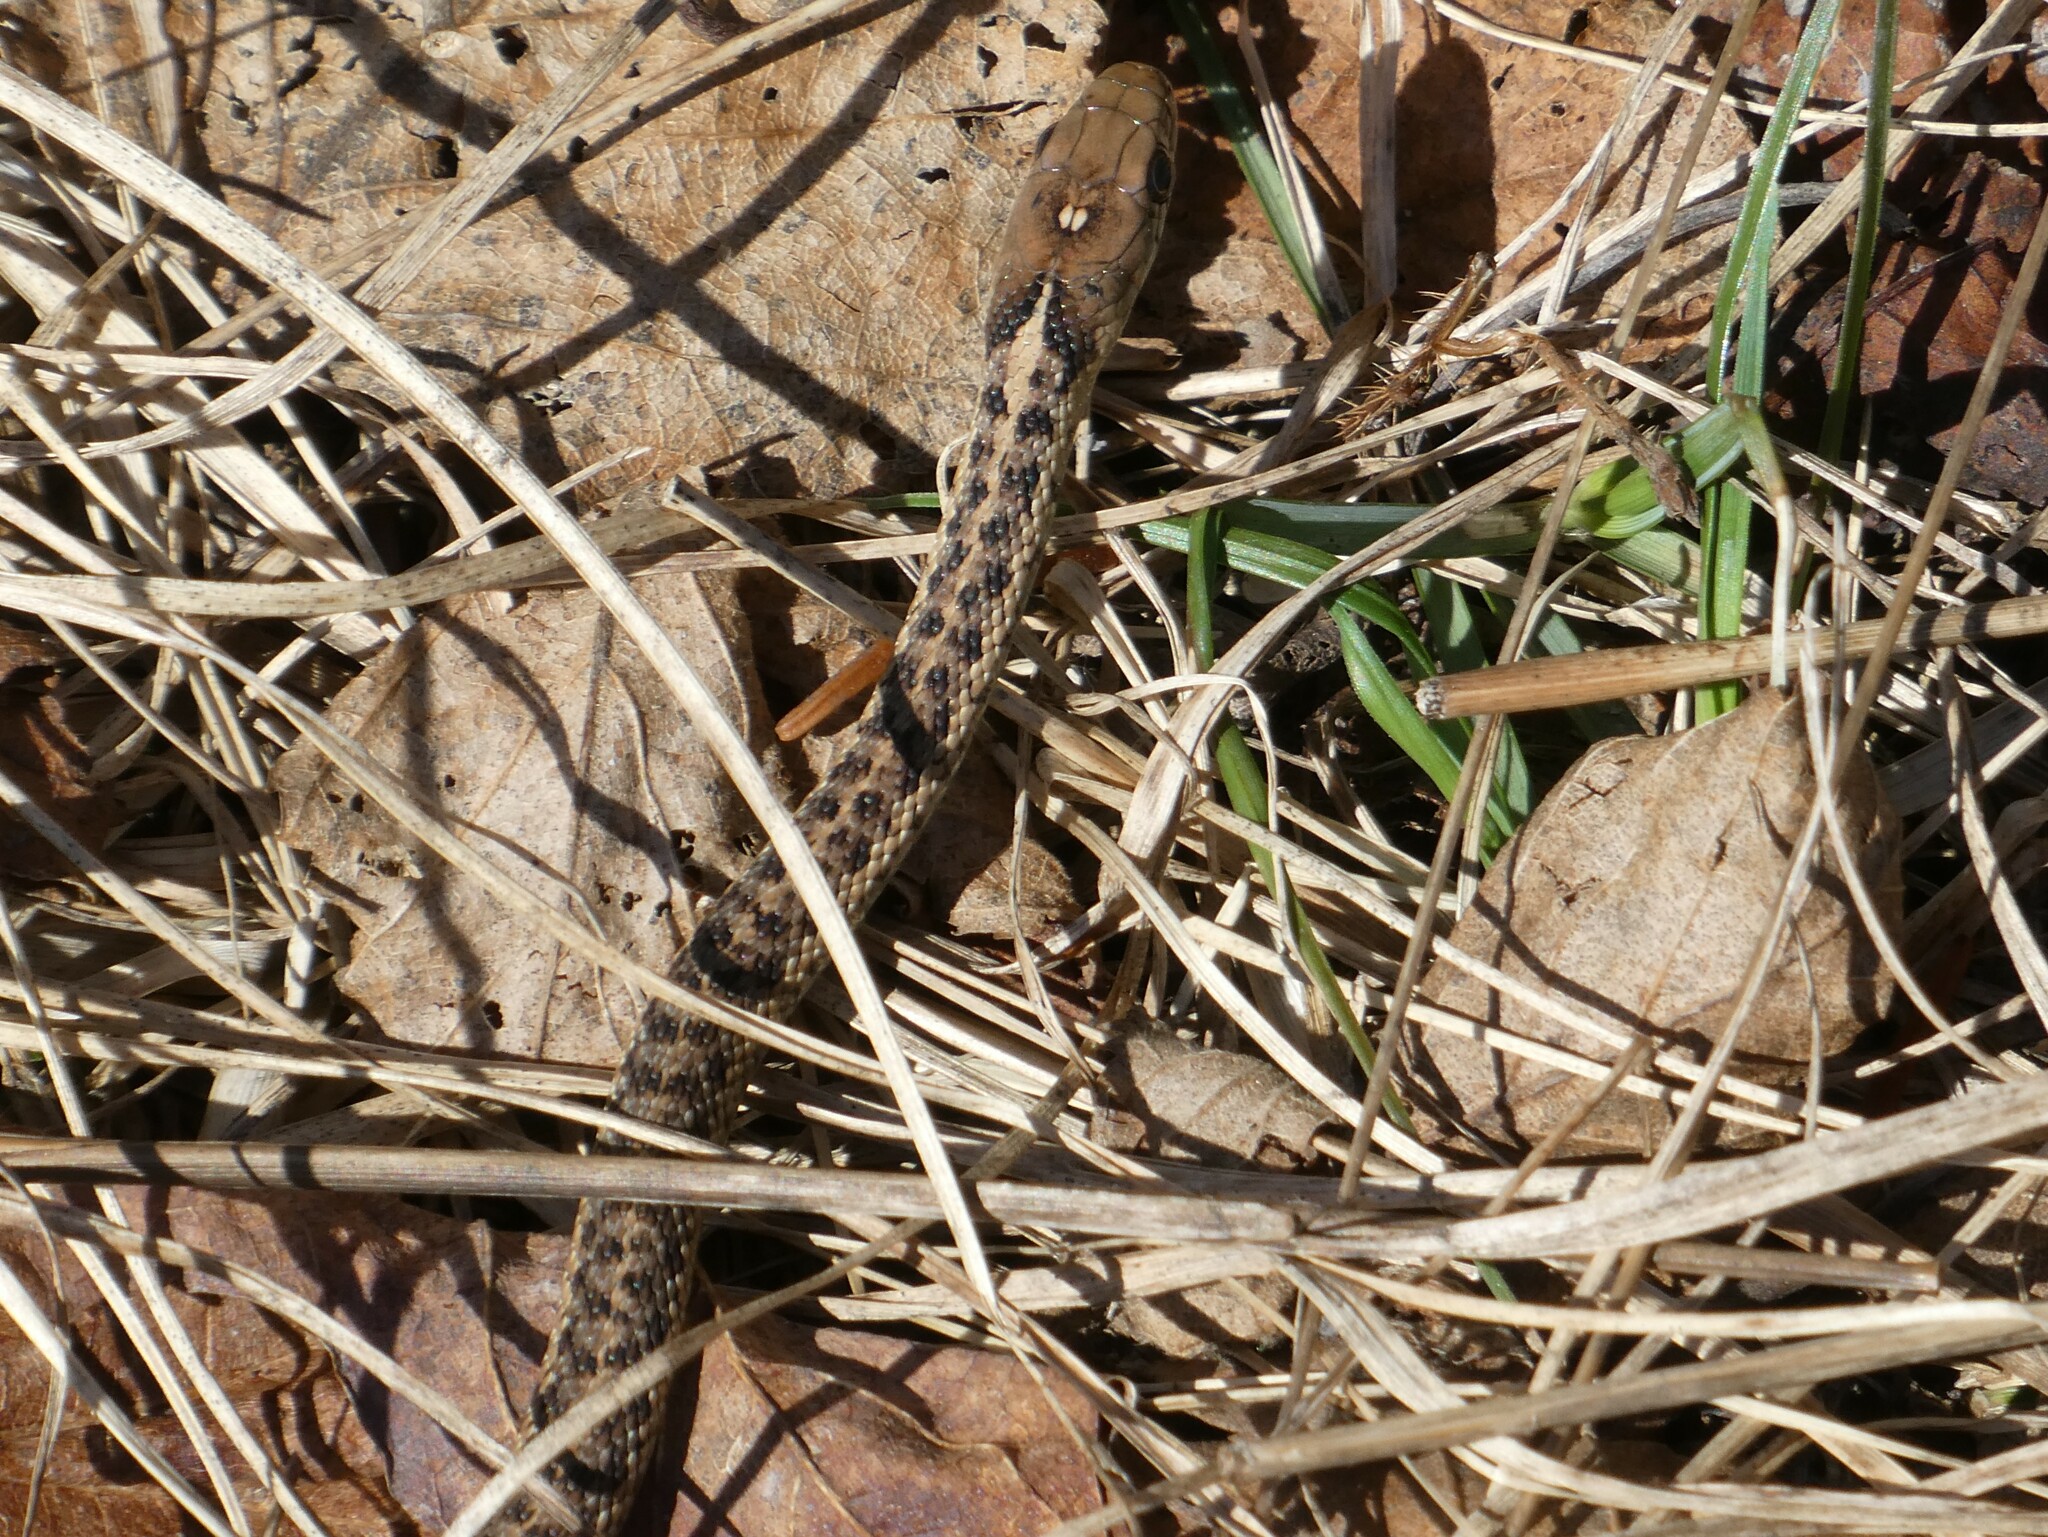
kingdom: Animalia
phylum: Chordata
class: Squamata
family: Colubridae
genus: Thamnophis
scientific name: Thamnophis sirtalis
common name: Common garter snake
